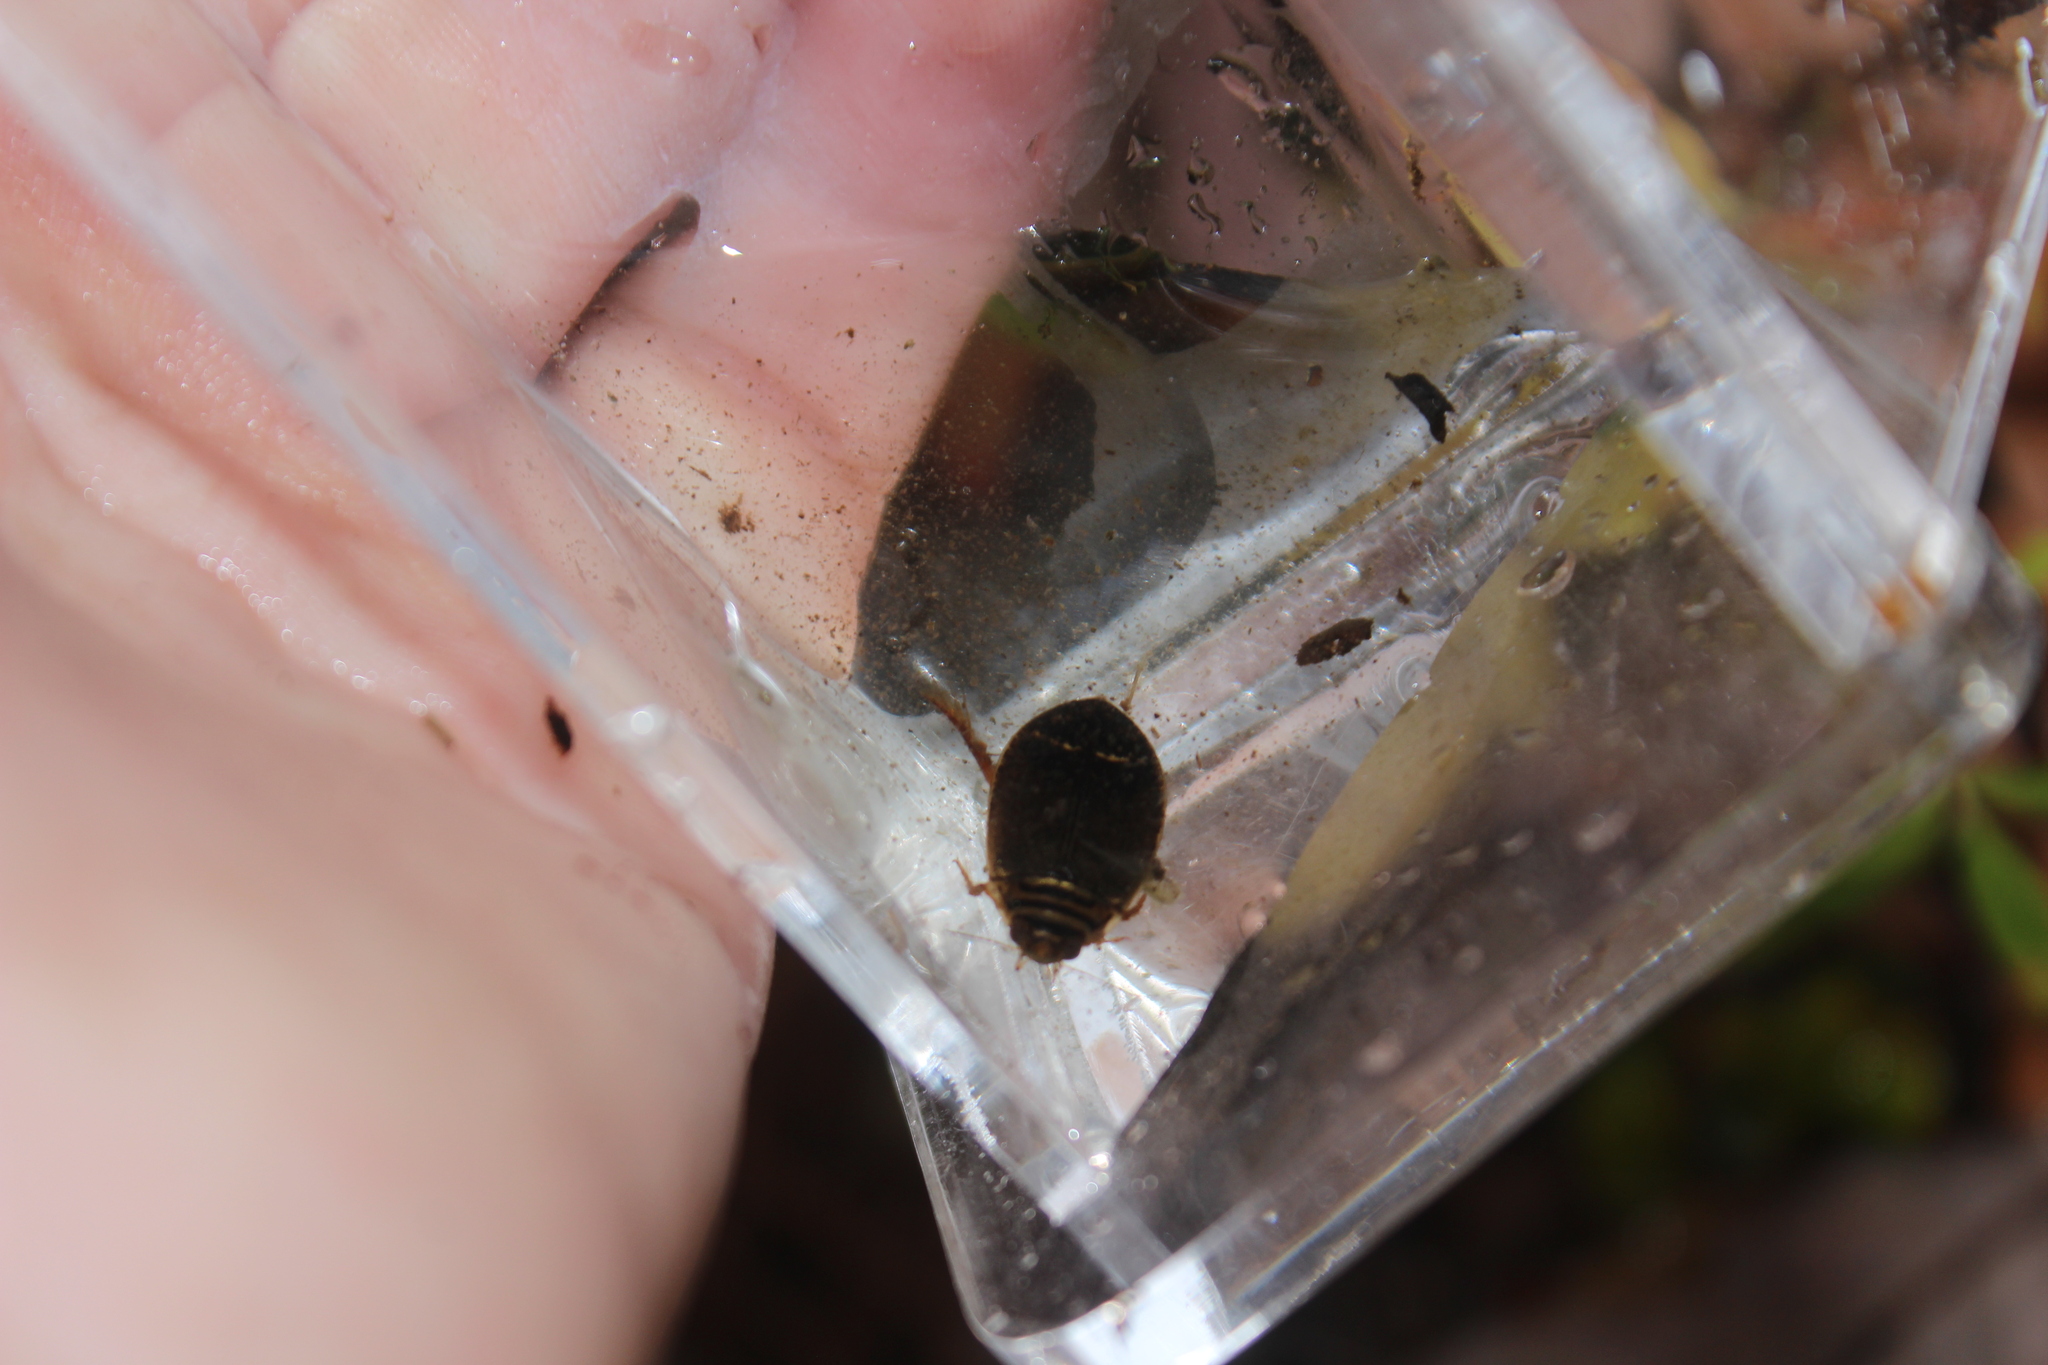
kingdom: Animalia
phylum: Arthropoda
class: Insecta
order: Coleoptera
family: Dytiscidae
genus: Acilius
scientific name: Acilius
